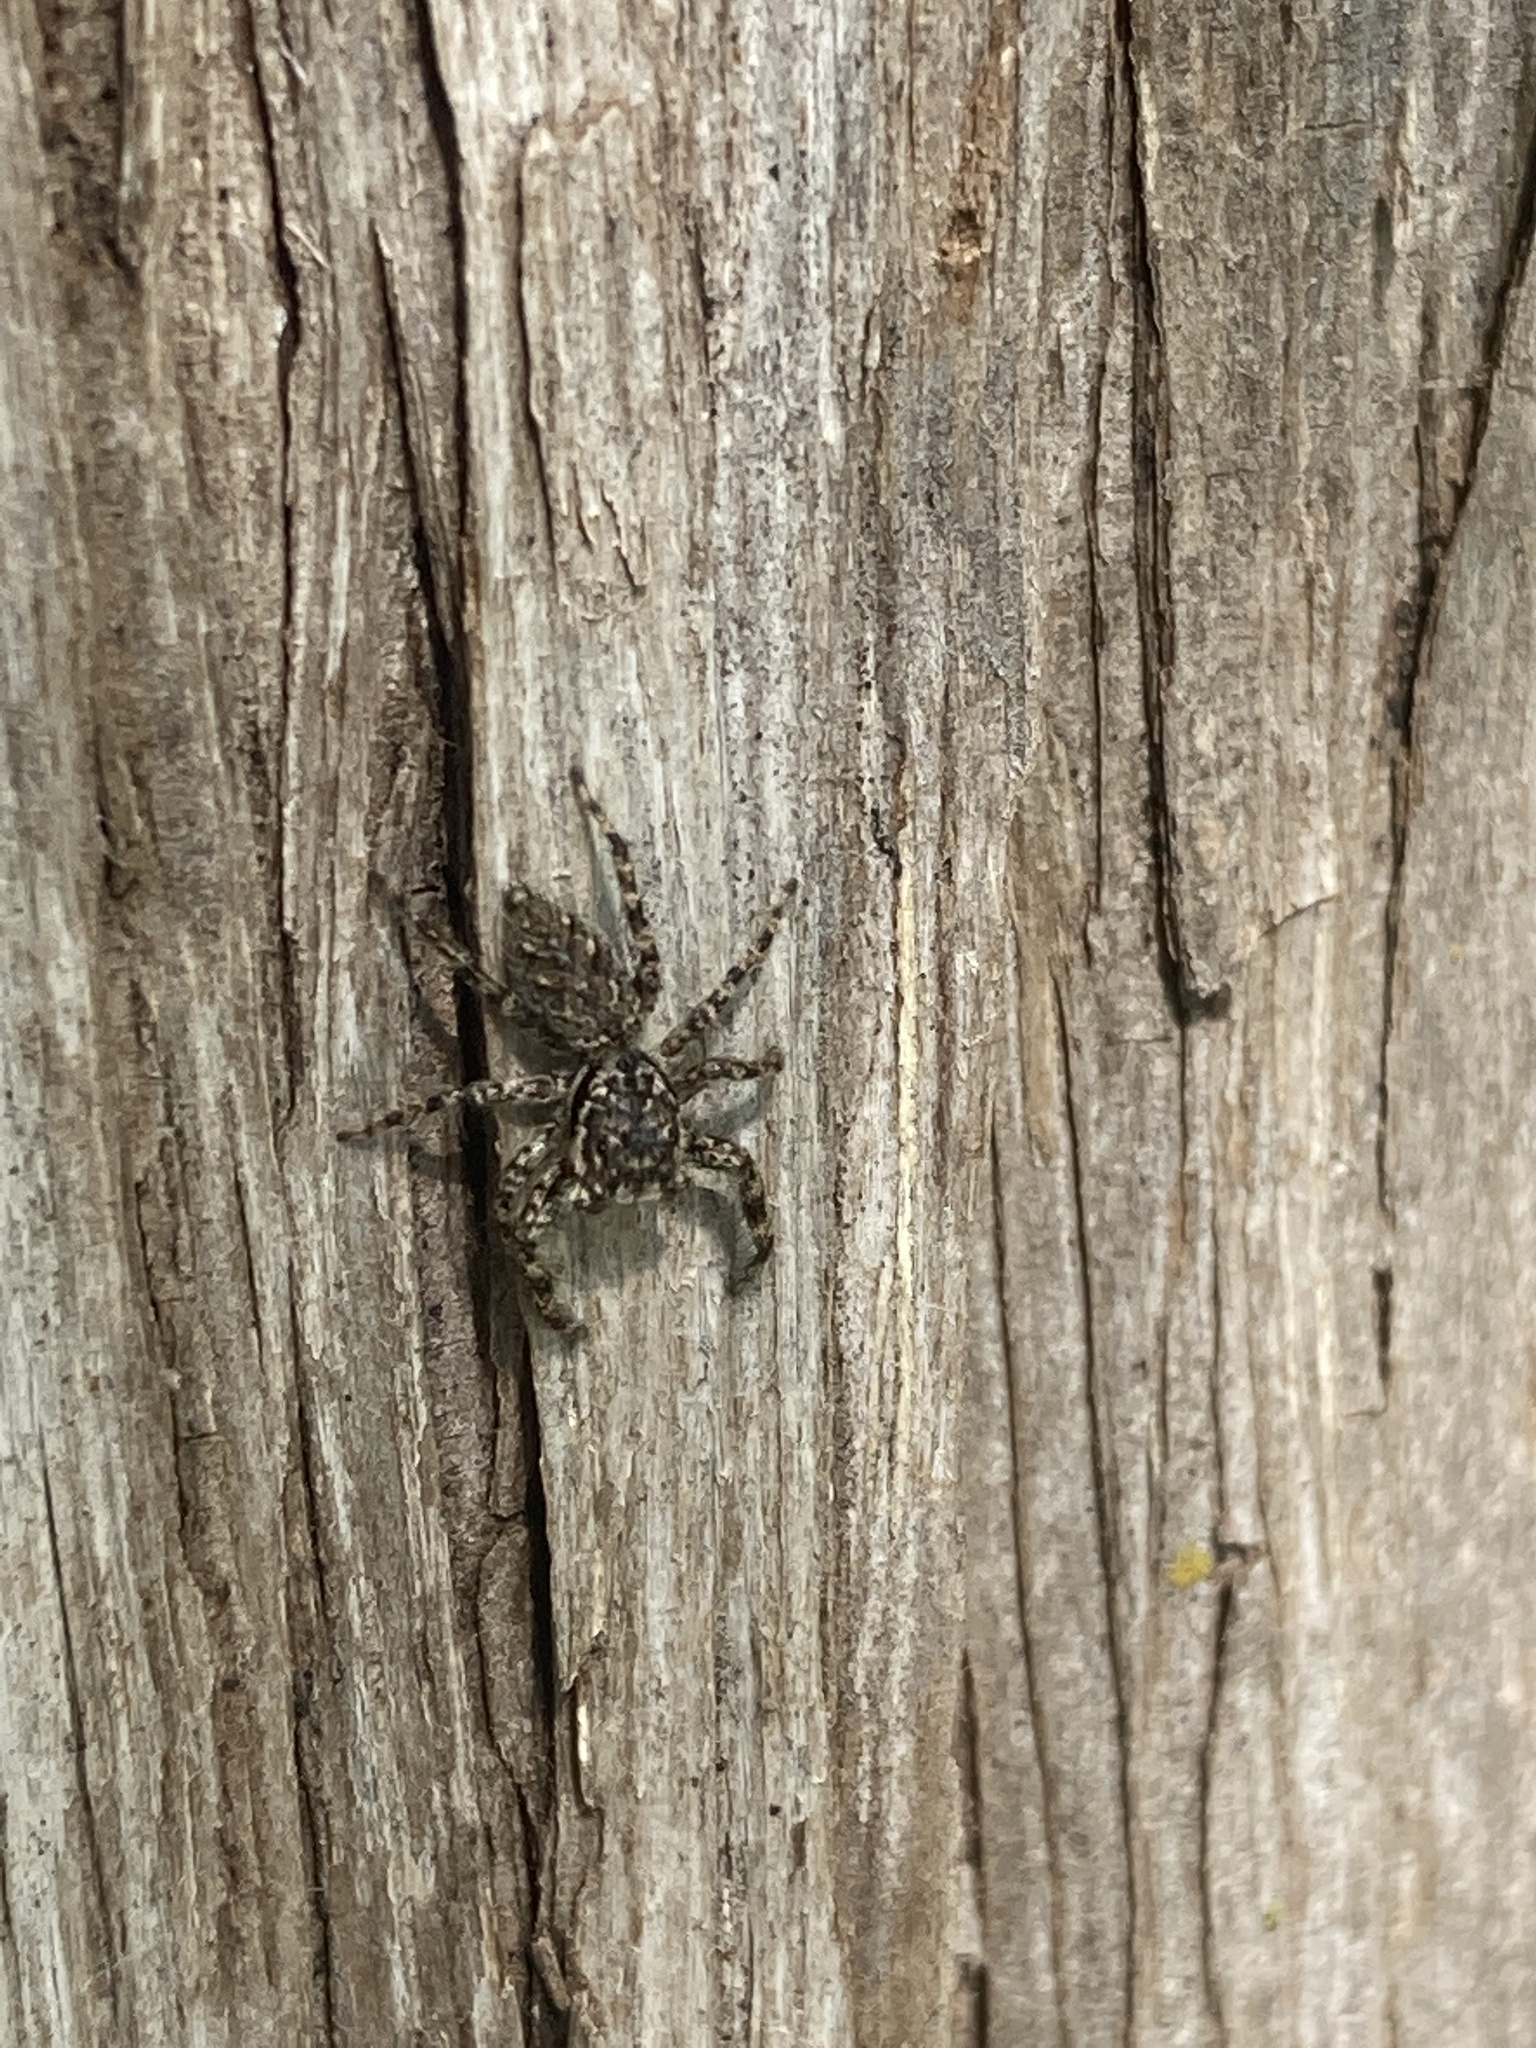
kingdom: Animalia
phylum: Arthropoda
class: Arachnida
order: Araneae
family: Salticidae
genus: Platycryptus
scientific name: Platycryptus undatus
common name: Tan jumping spider
